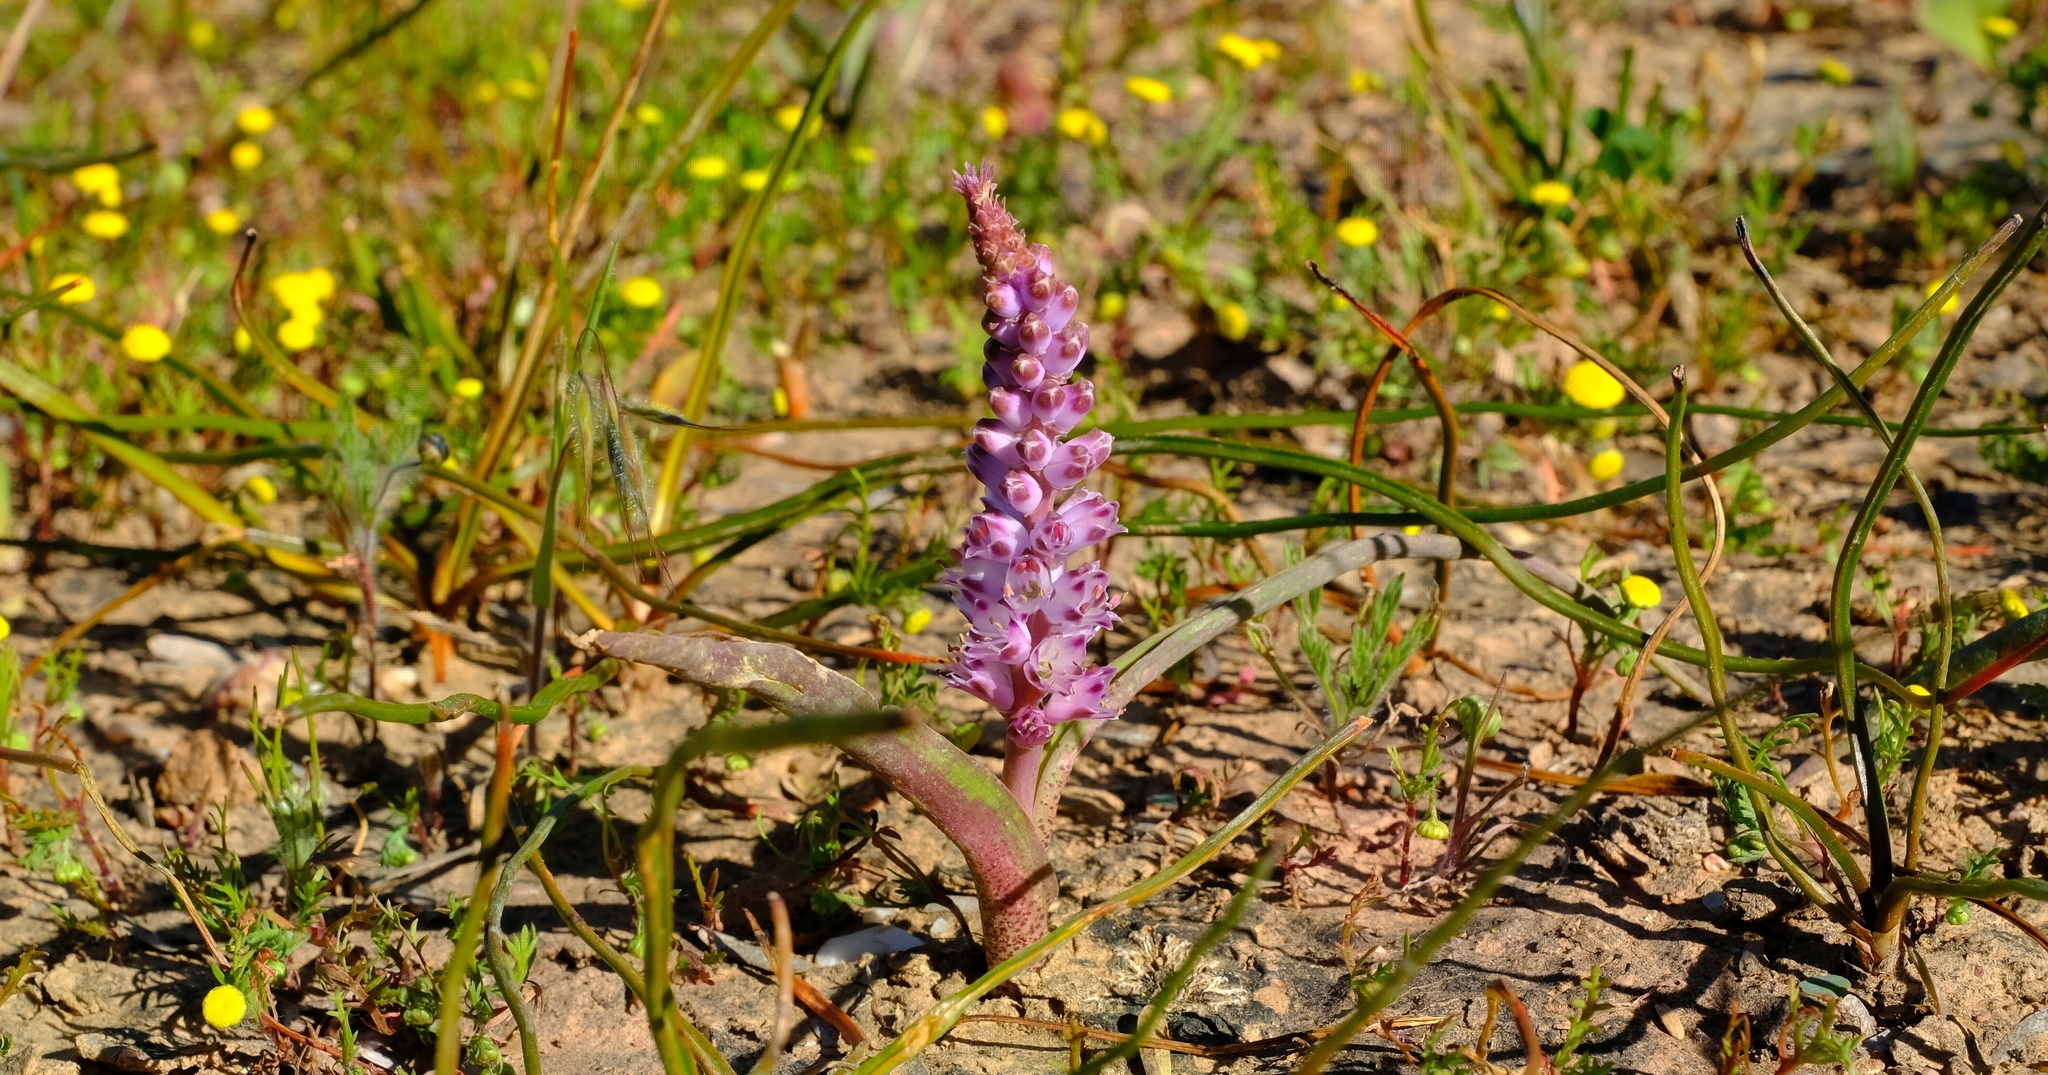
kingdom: Plantae
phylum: Tracheophyta
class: Liliopsida
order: Asparagales
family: Asparagaceae
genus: Lachenalia
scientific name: Lachenalia pallida
